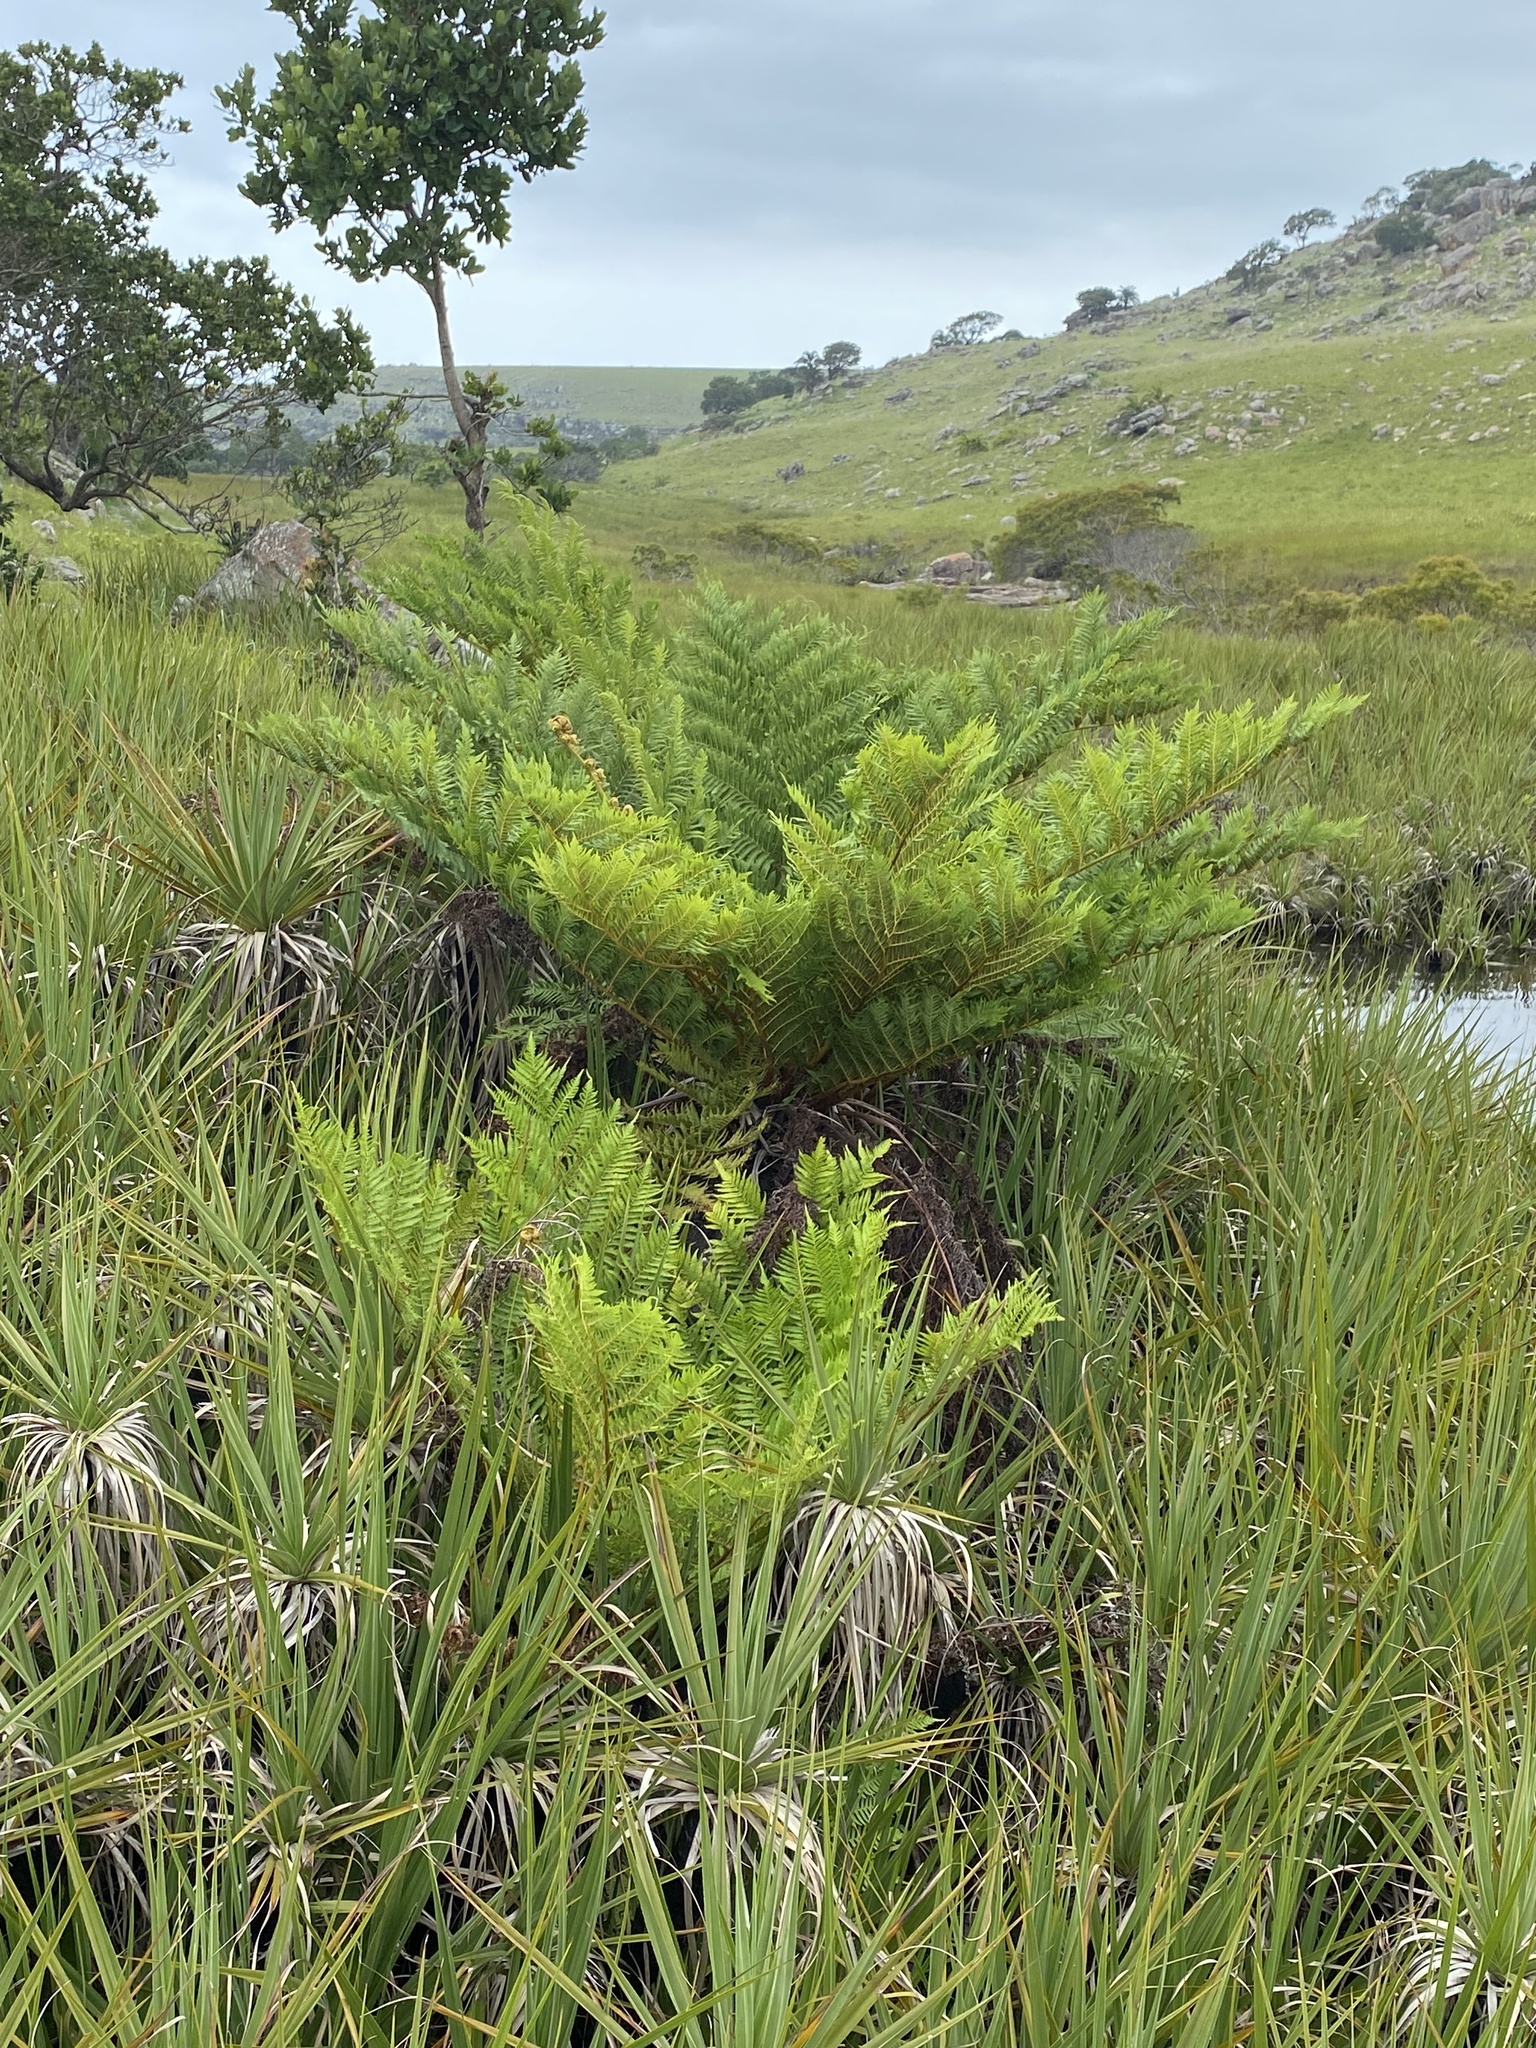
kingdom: Plantae
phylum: Tracheophyta
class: Polypodiopsida
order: Cyatheales
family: Cyatheaceae
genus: Alsophila
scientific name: Alsophila dregei
